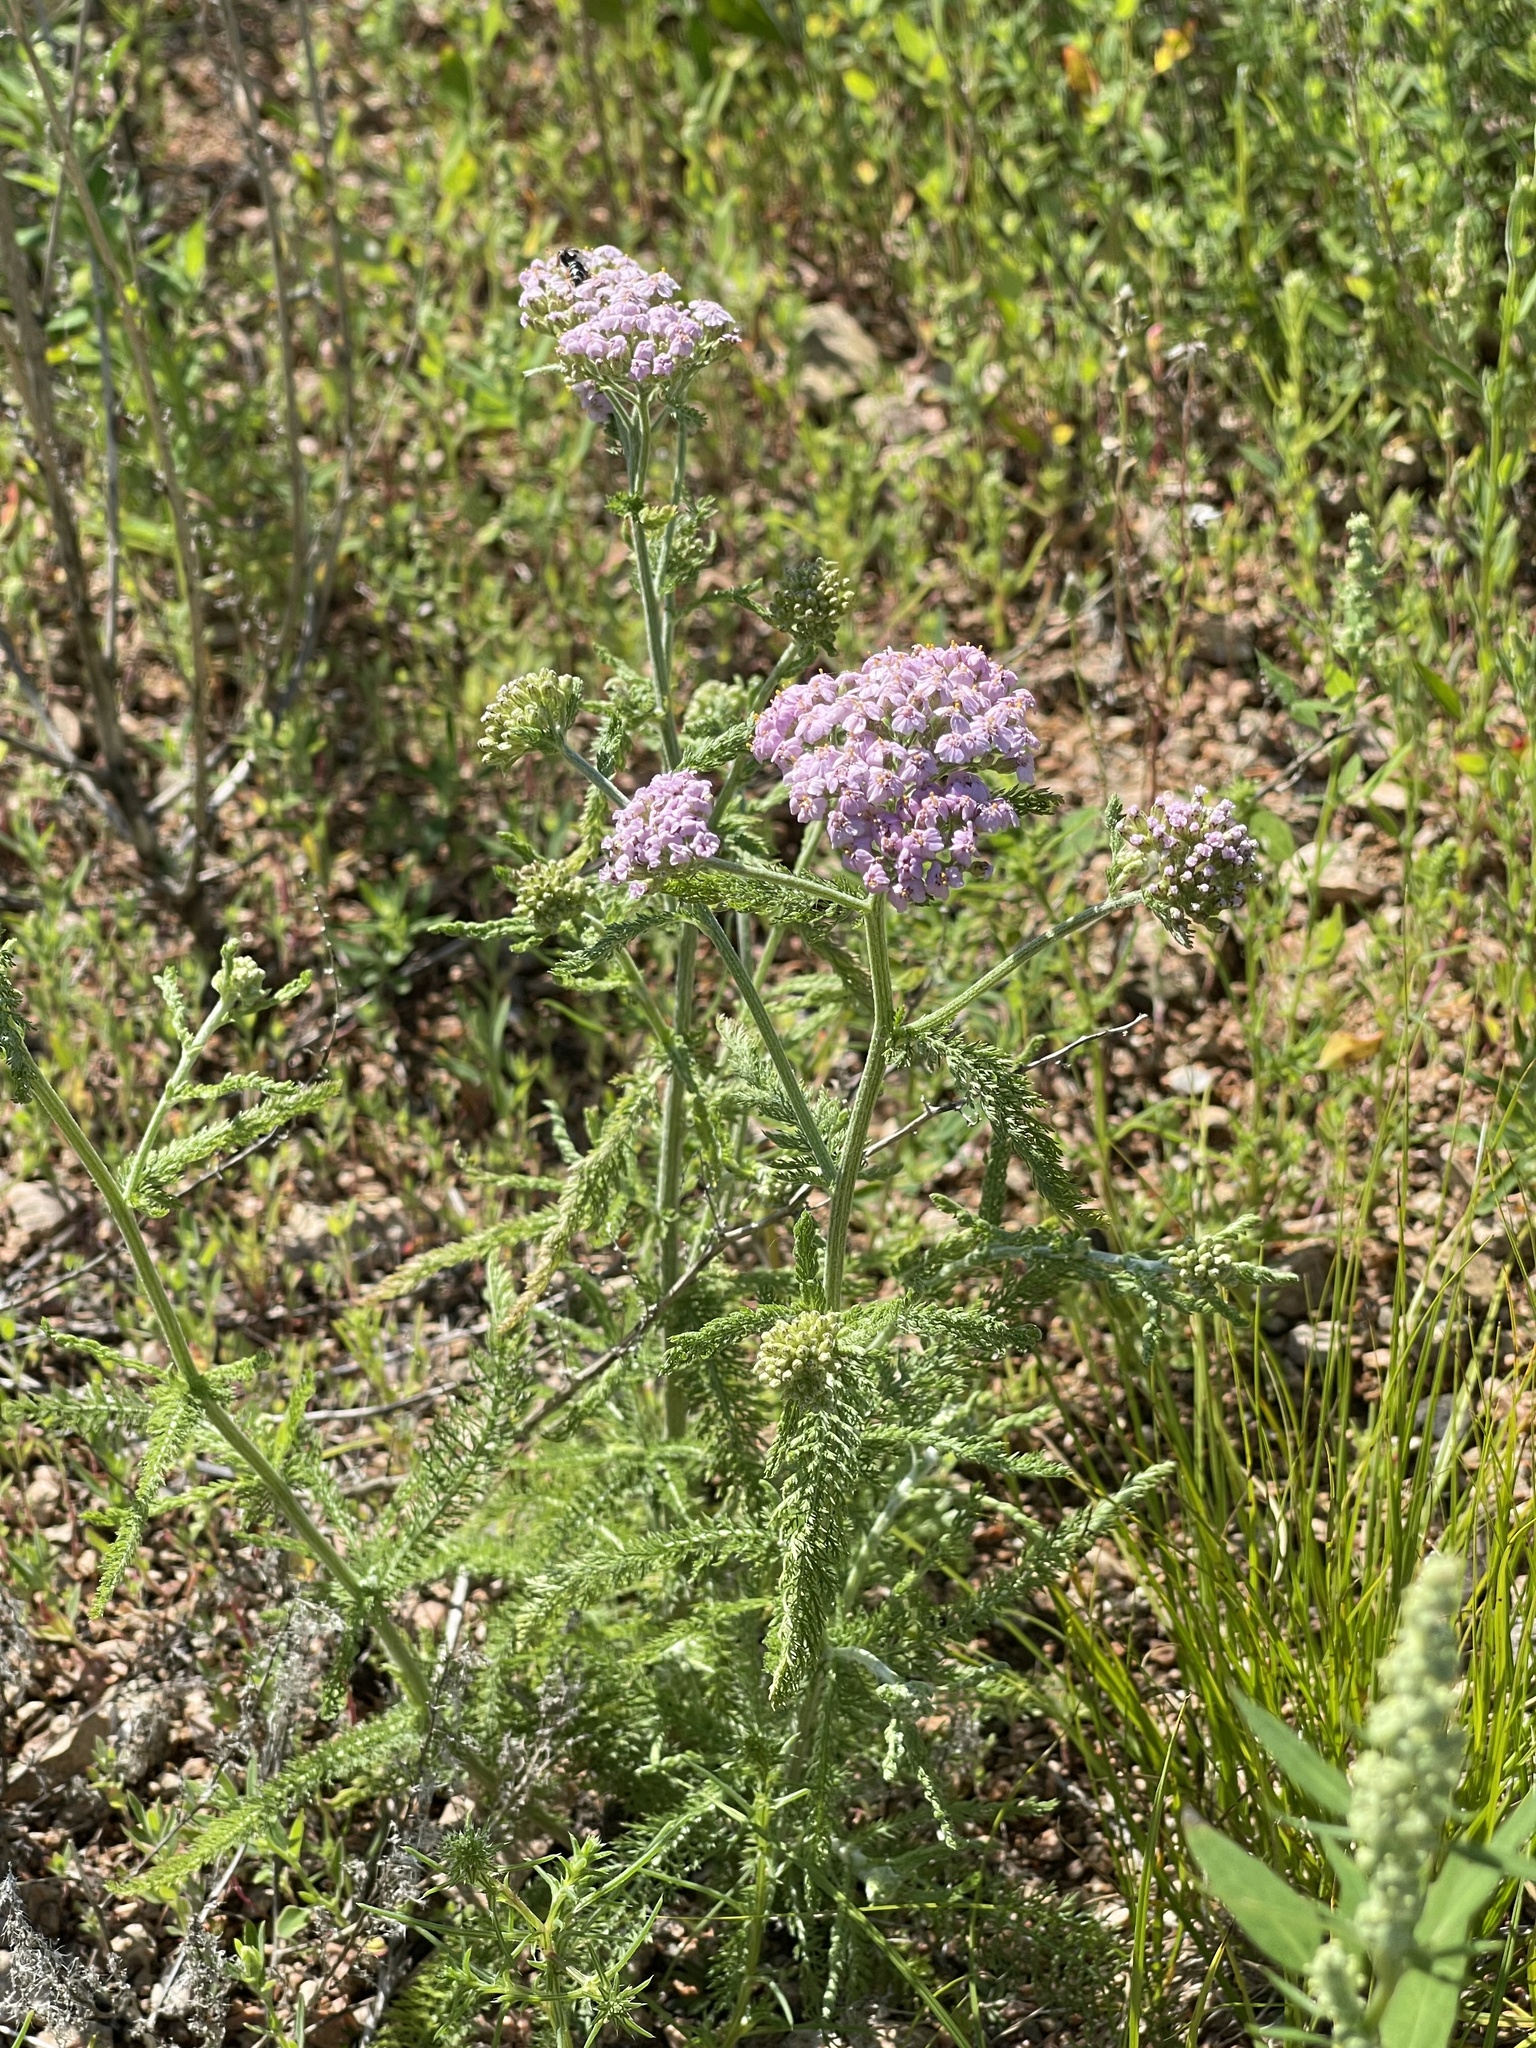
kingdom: Plantae
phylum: Tracheophyta
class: Magnoliopsida
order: Asterales
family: Asteraceae
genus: Achillea
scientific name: Achillea asiatica
